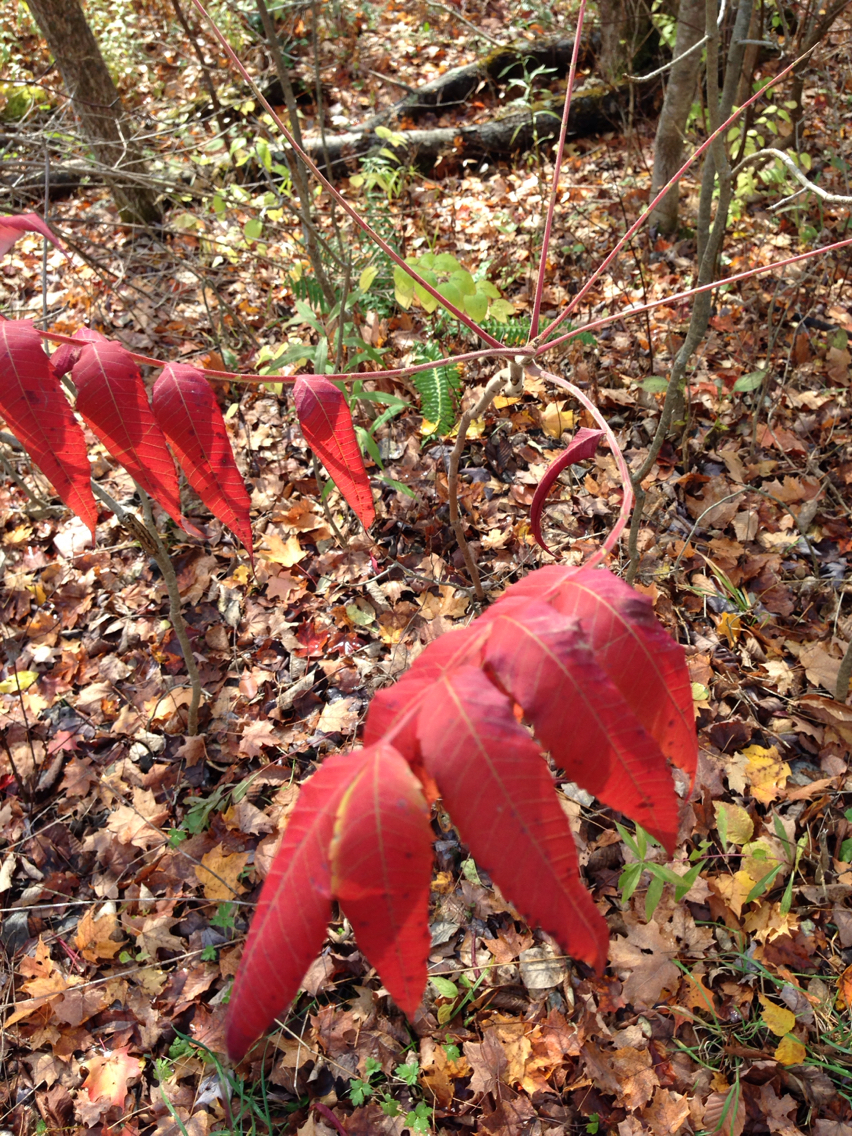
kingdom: Plantae
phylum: Tracheophyta
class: Magnoliopsida
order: Sapindales
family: Anacardiaceae
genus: Rhus
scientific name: Rhus typhina
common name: Staghorn sumac
